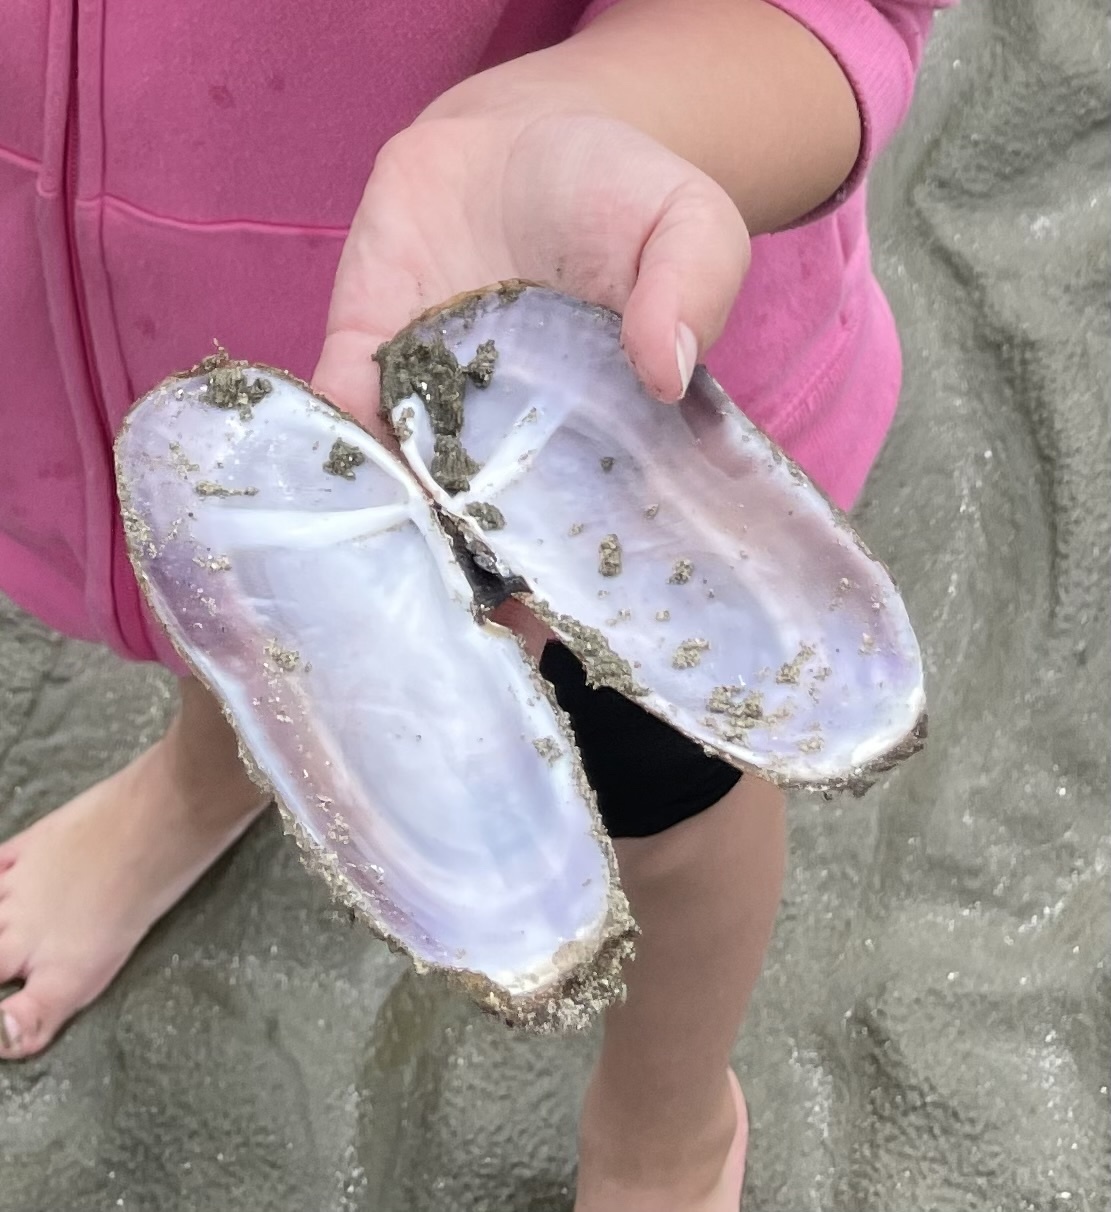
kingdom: Animalia
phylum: Mollusca
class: Bivalvia
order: Adapedonta
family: Pharidae
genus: Siliqua
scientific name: Siliqua patula
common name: Pacific razor clam
